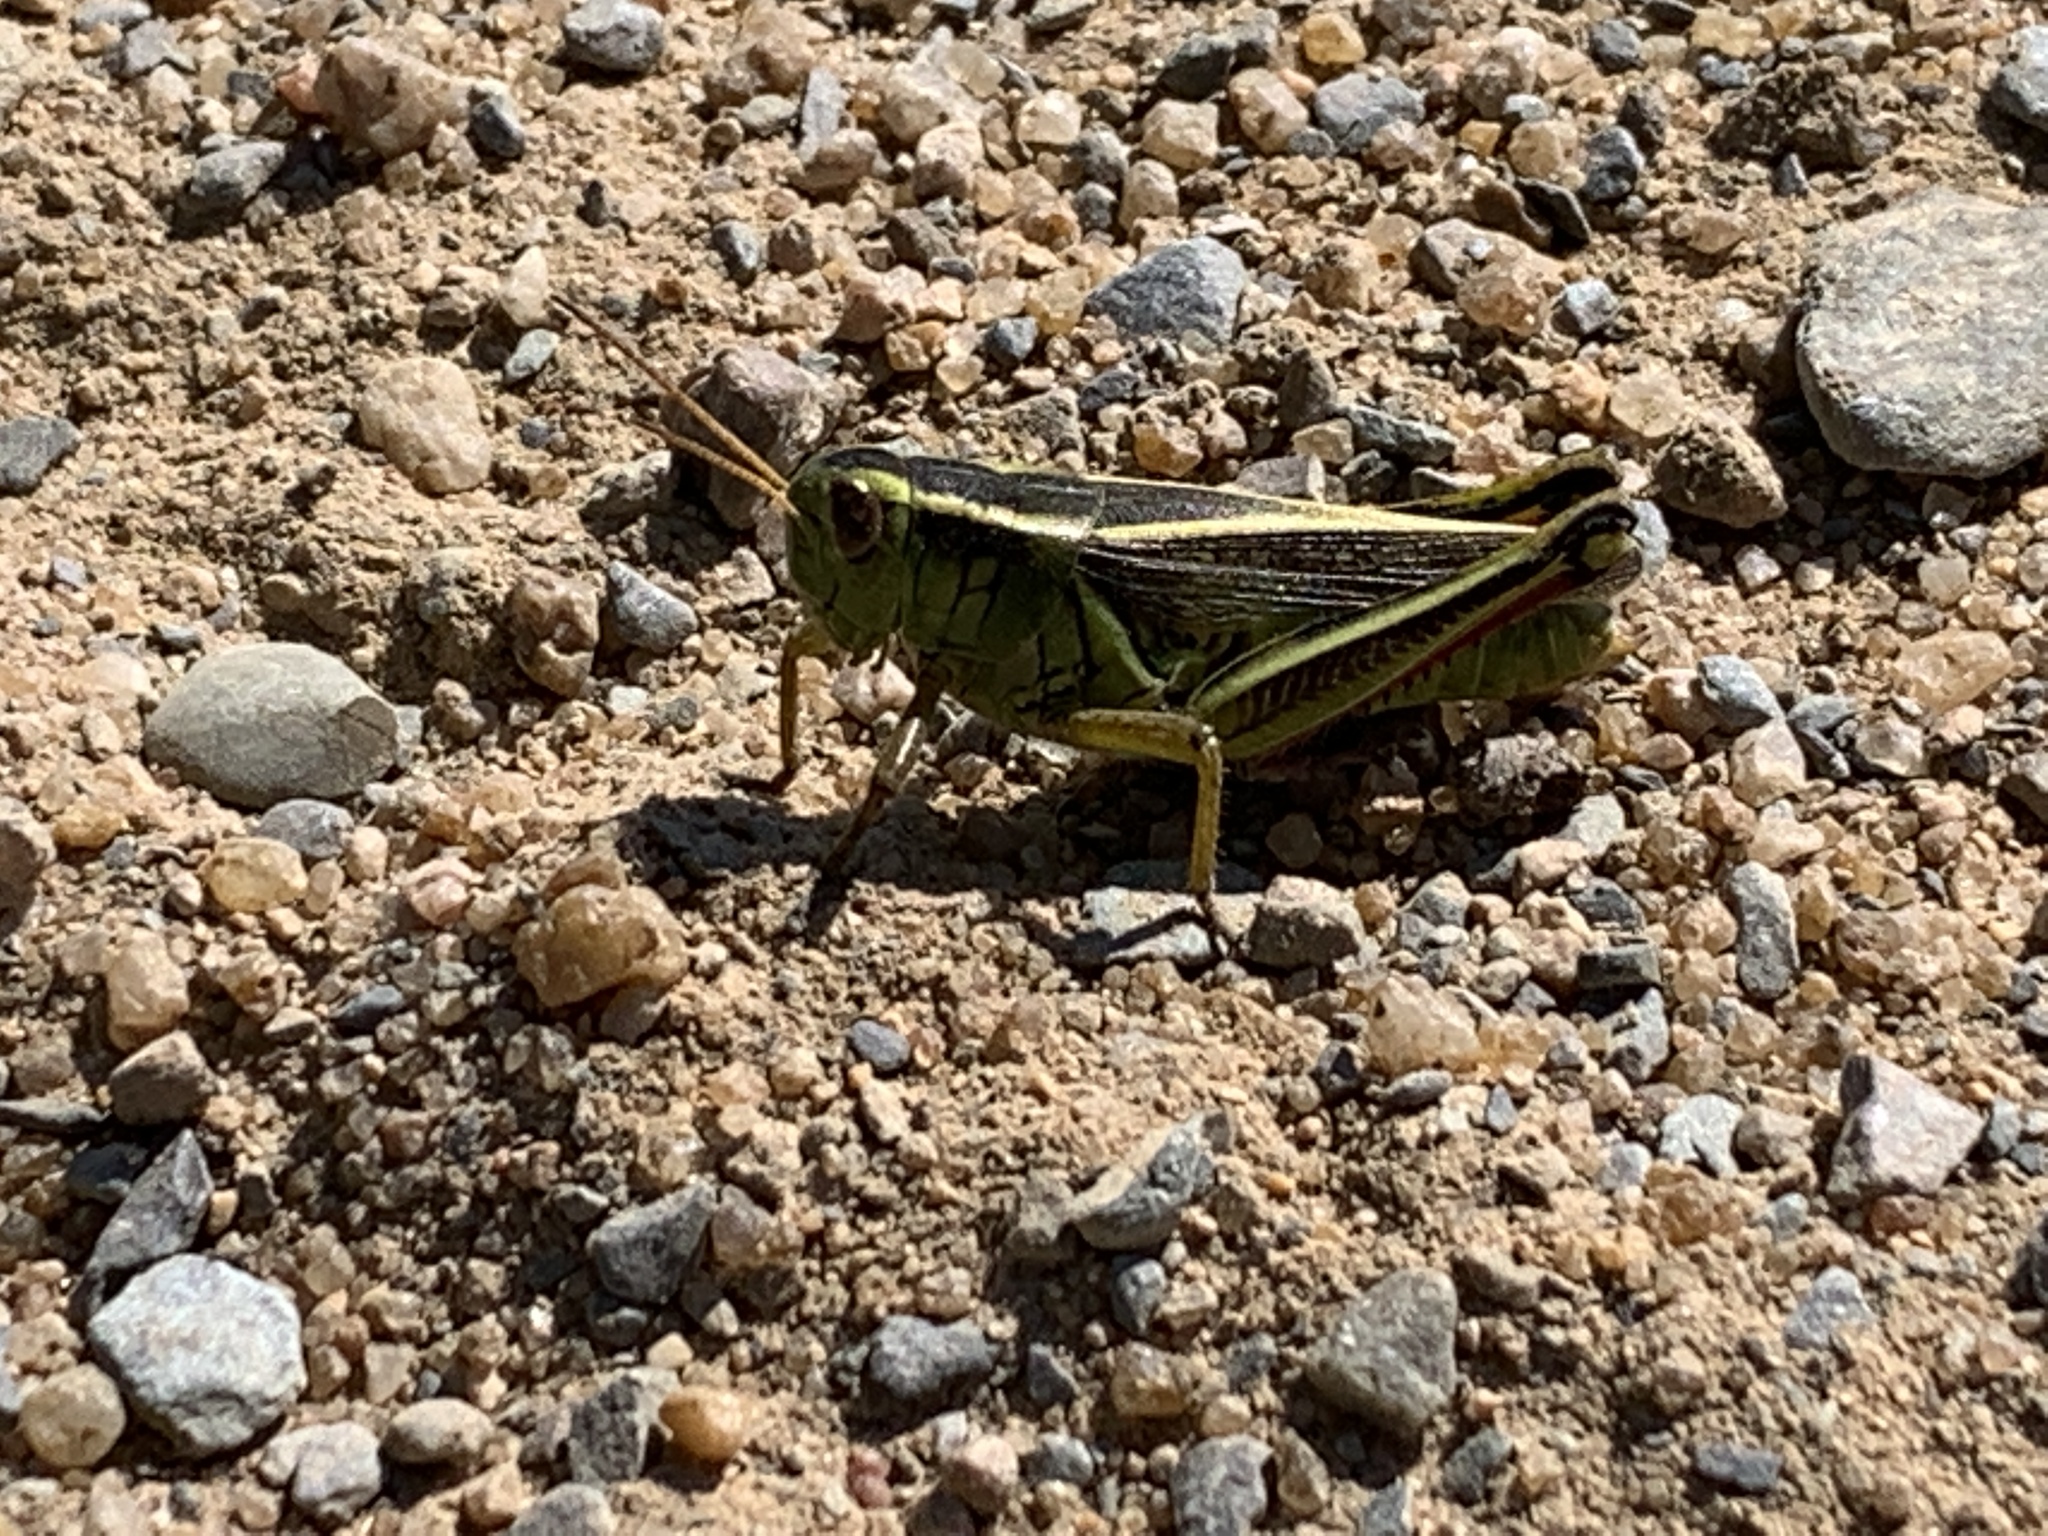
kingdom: Animalia
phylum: Arthropoda
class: Insecta
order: Orthoptera
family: Acrididae
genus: Melanoplus
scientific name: Melanoplus bivittatus
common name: Two-striped grasshopper
